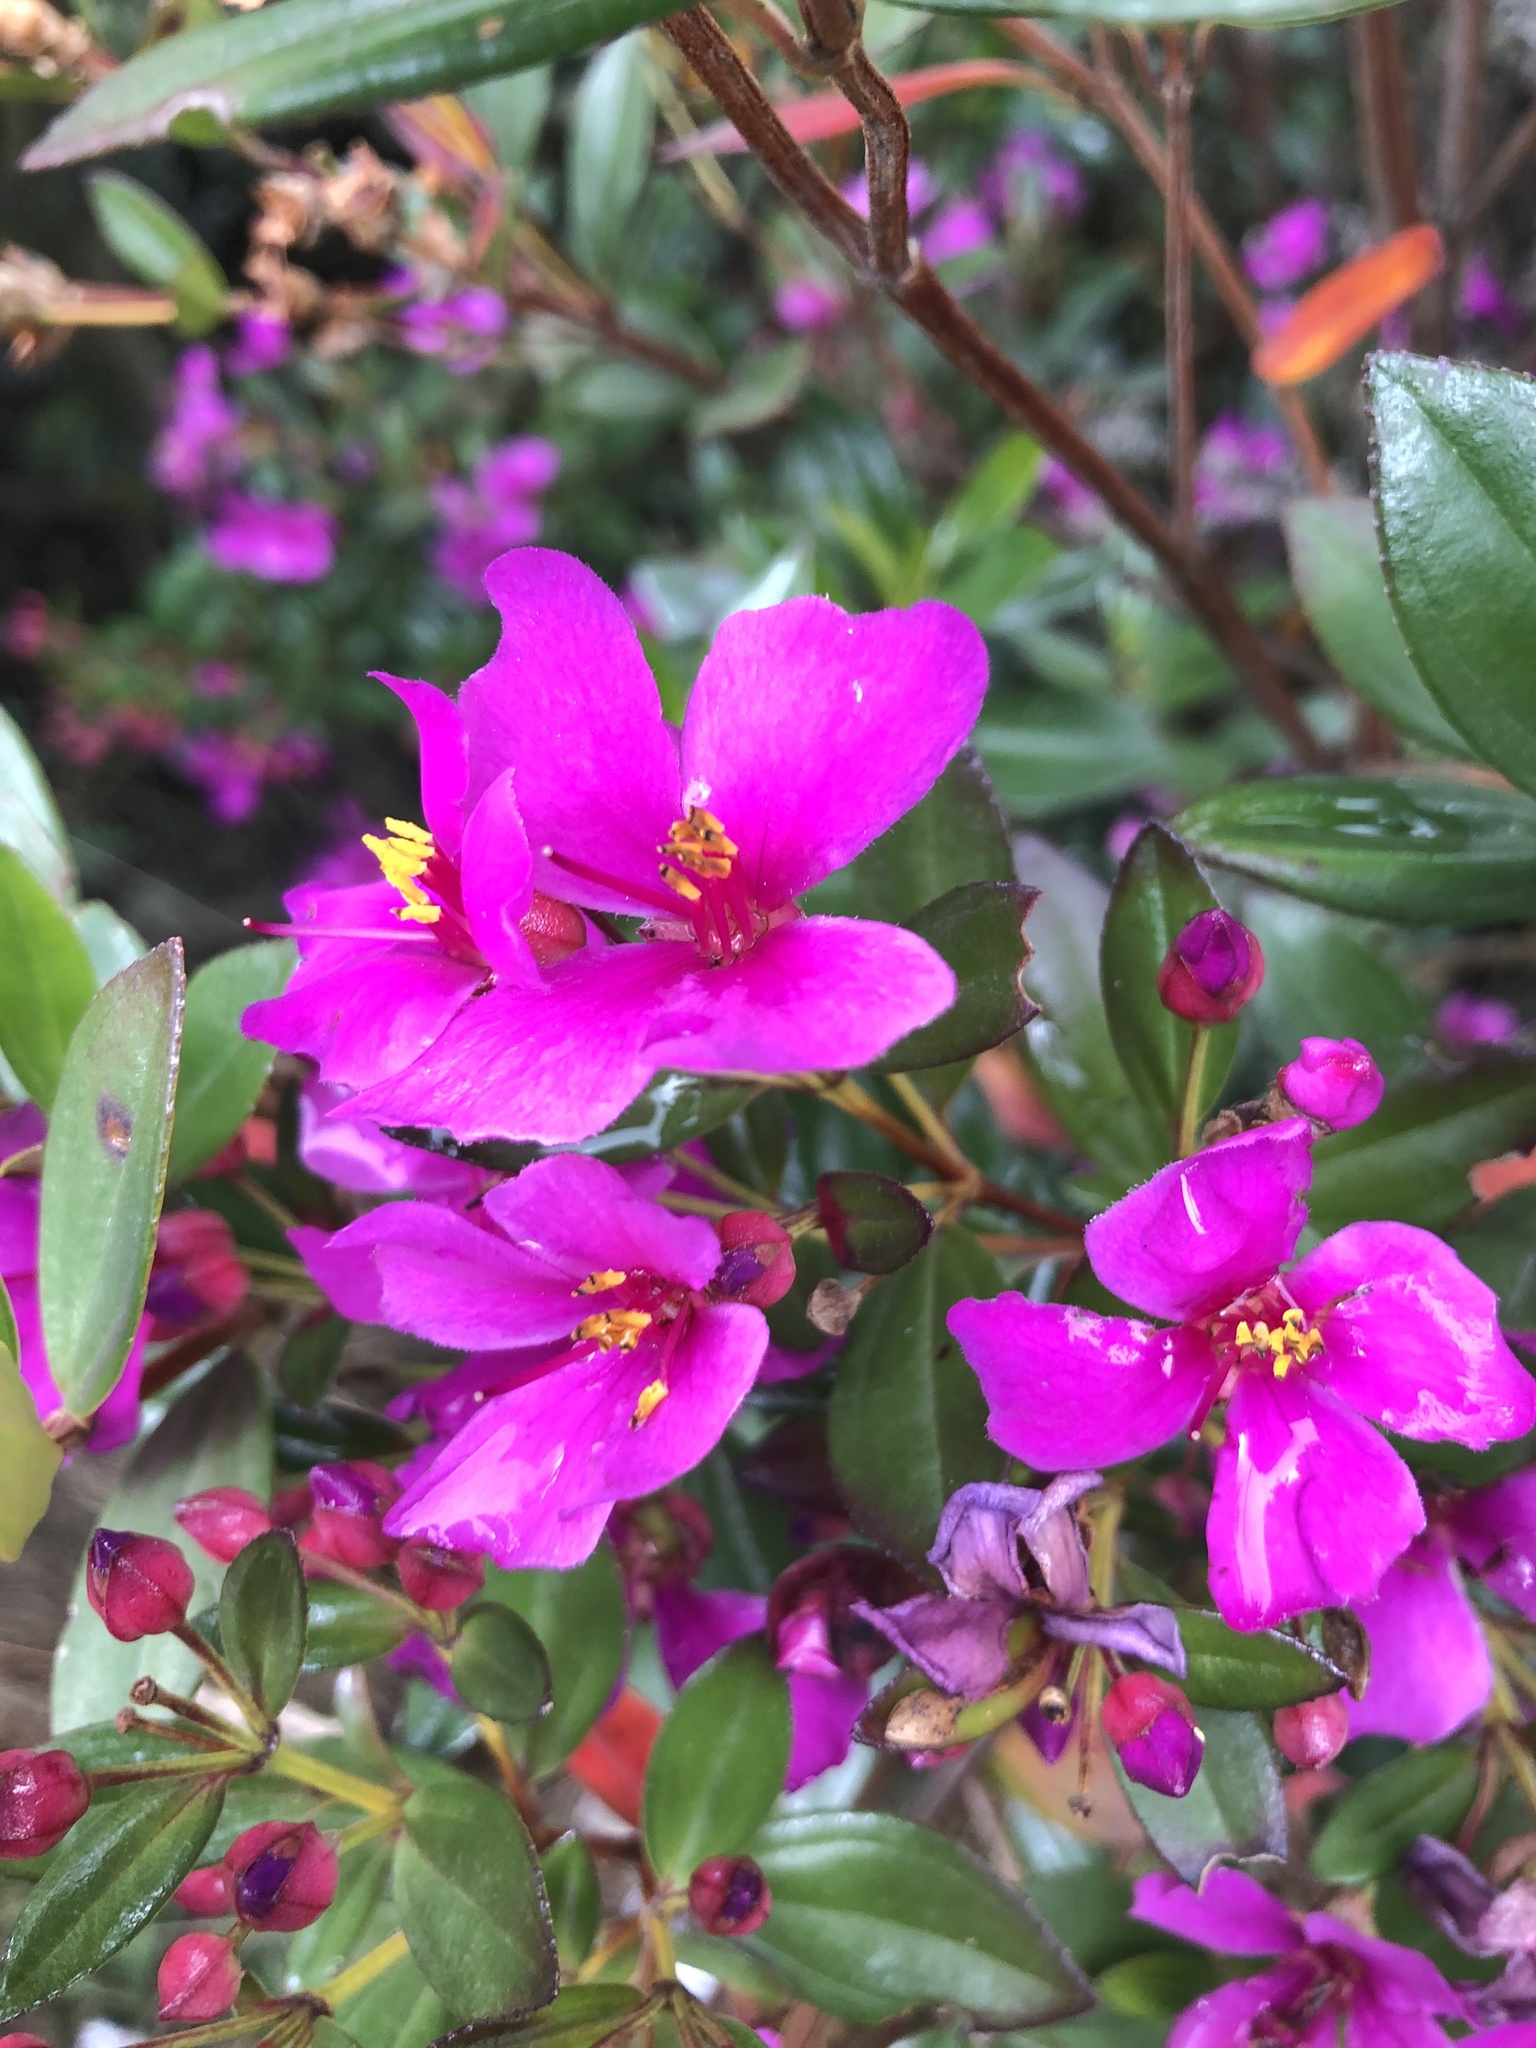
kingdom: Plantae
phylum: Tracheophyta
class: Magnoliopsida
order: Myrtales
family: Melastomataceae
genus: Bucquetia
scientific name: Bucquetia glutinosa
